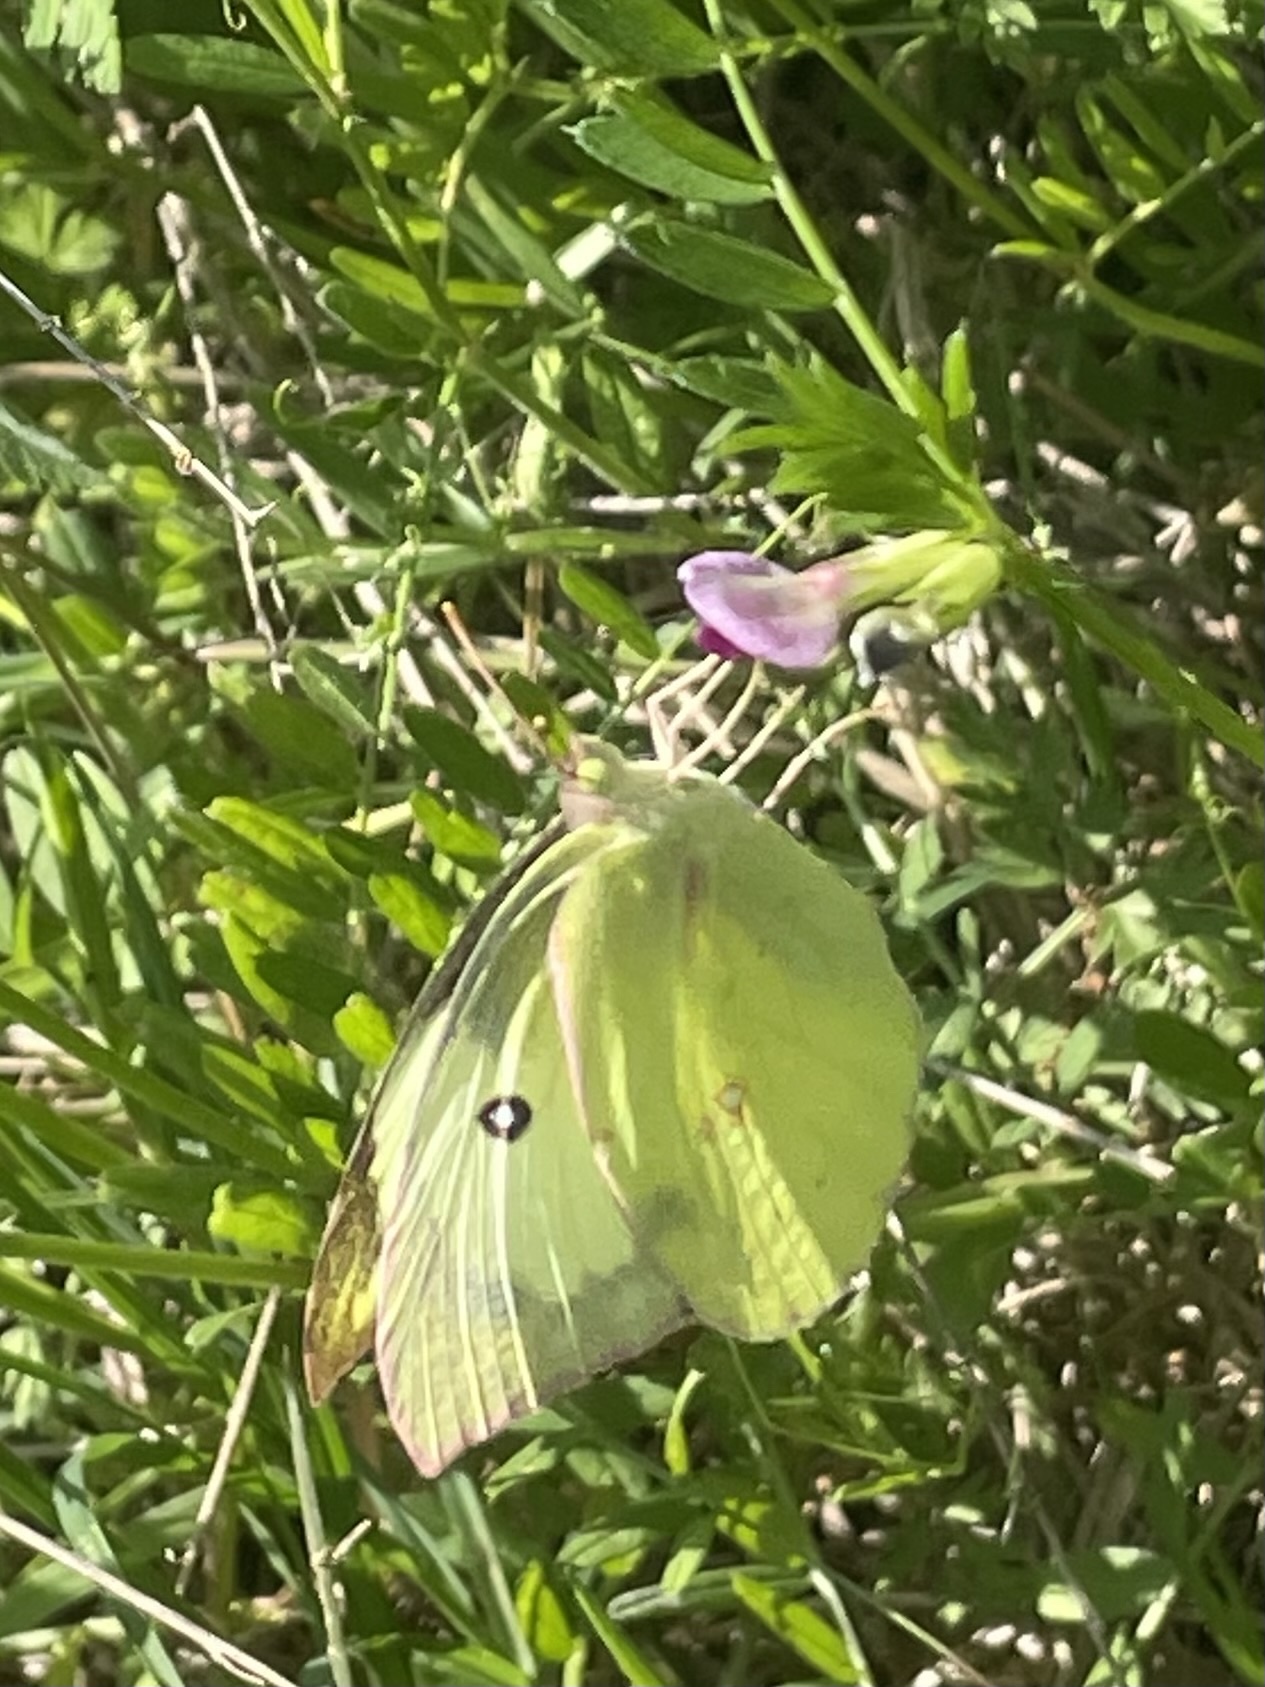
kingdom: Animalia
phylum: Arthropoda
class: Insecta
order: Lepidoptera
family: Pieridae
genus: Zerene
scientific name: Zerene cesonia
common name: Southern dogface
